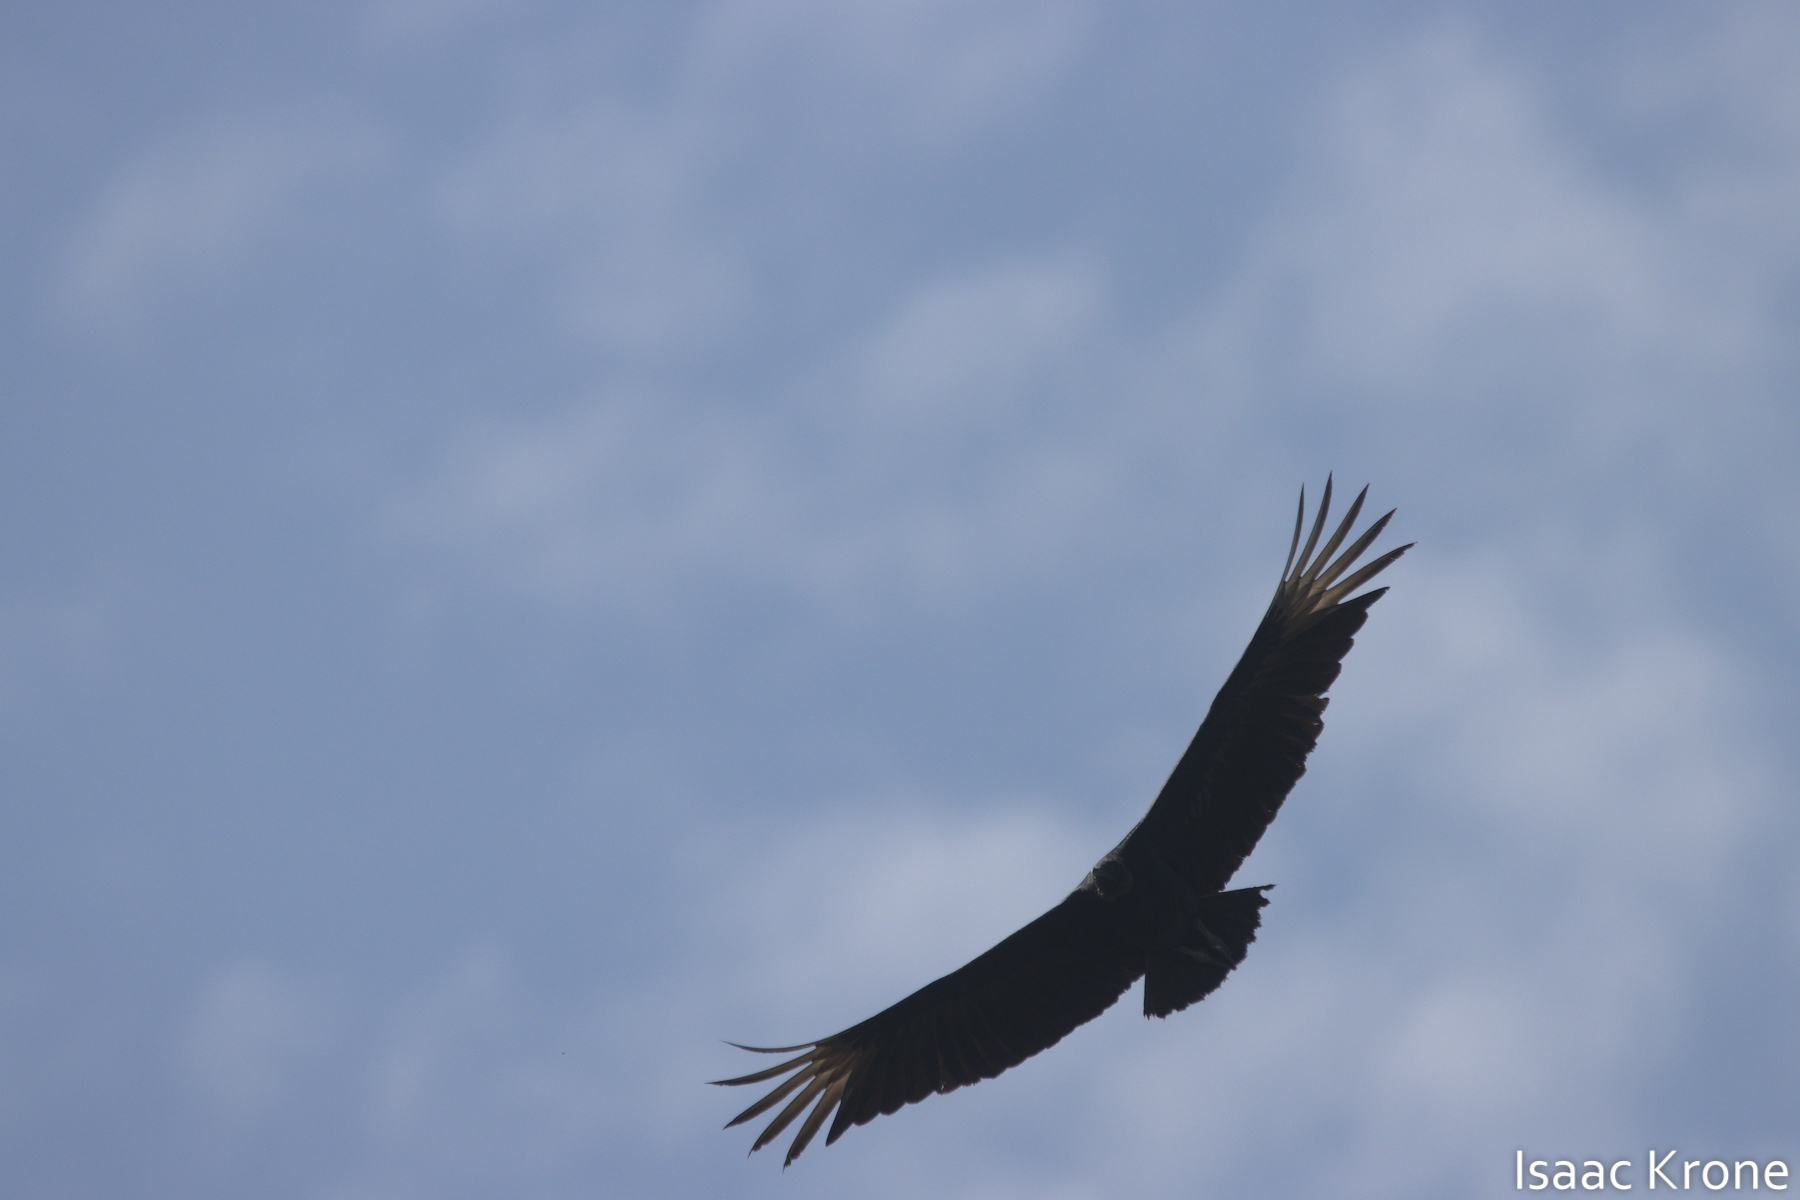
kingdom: Animalia
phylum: Chordata
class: Aves
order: Accipitriformes
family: Cathartidae
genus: Coragyps
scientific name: Coragyps atratus
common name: Black vulture
